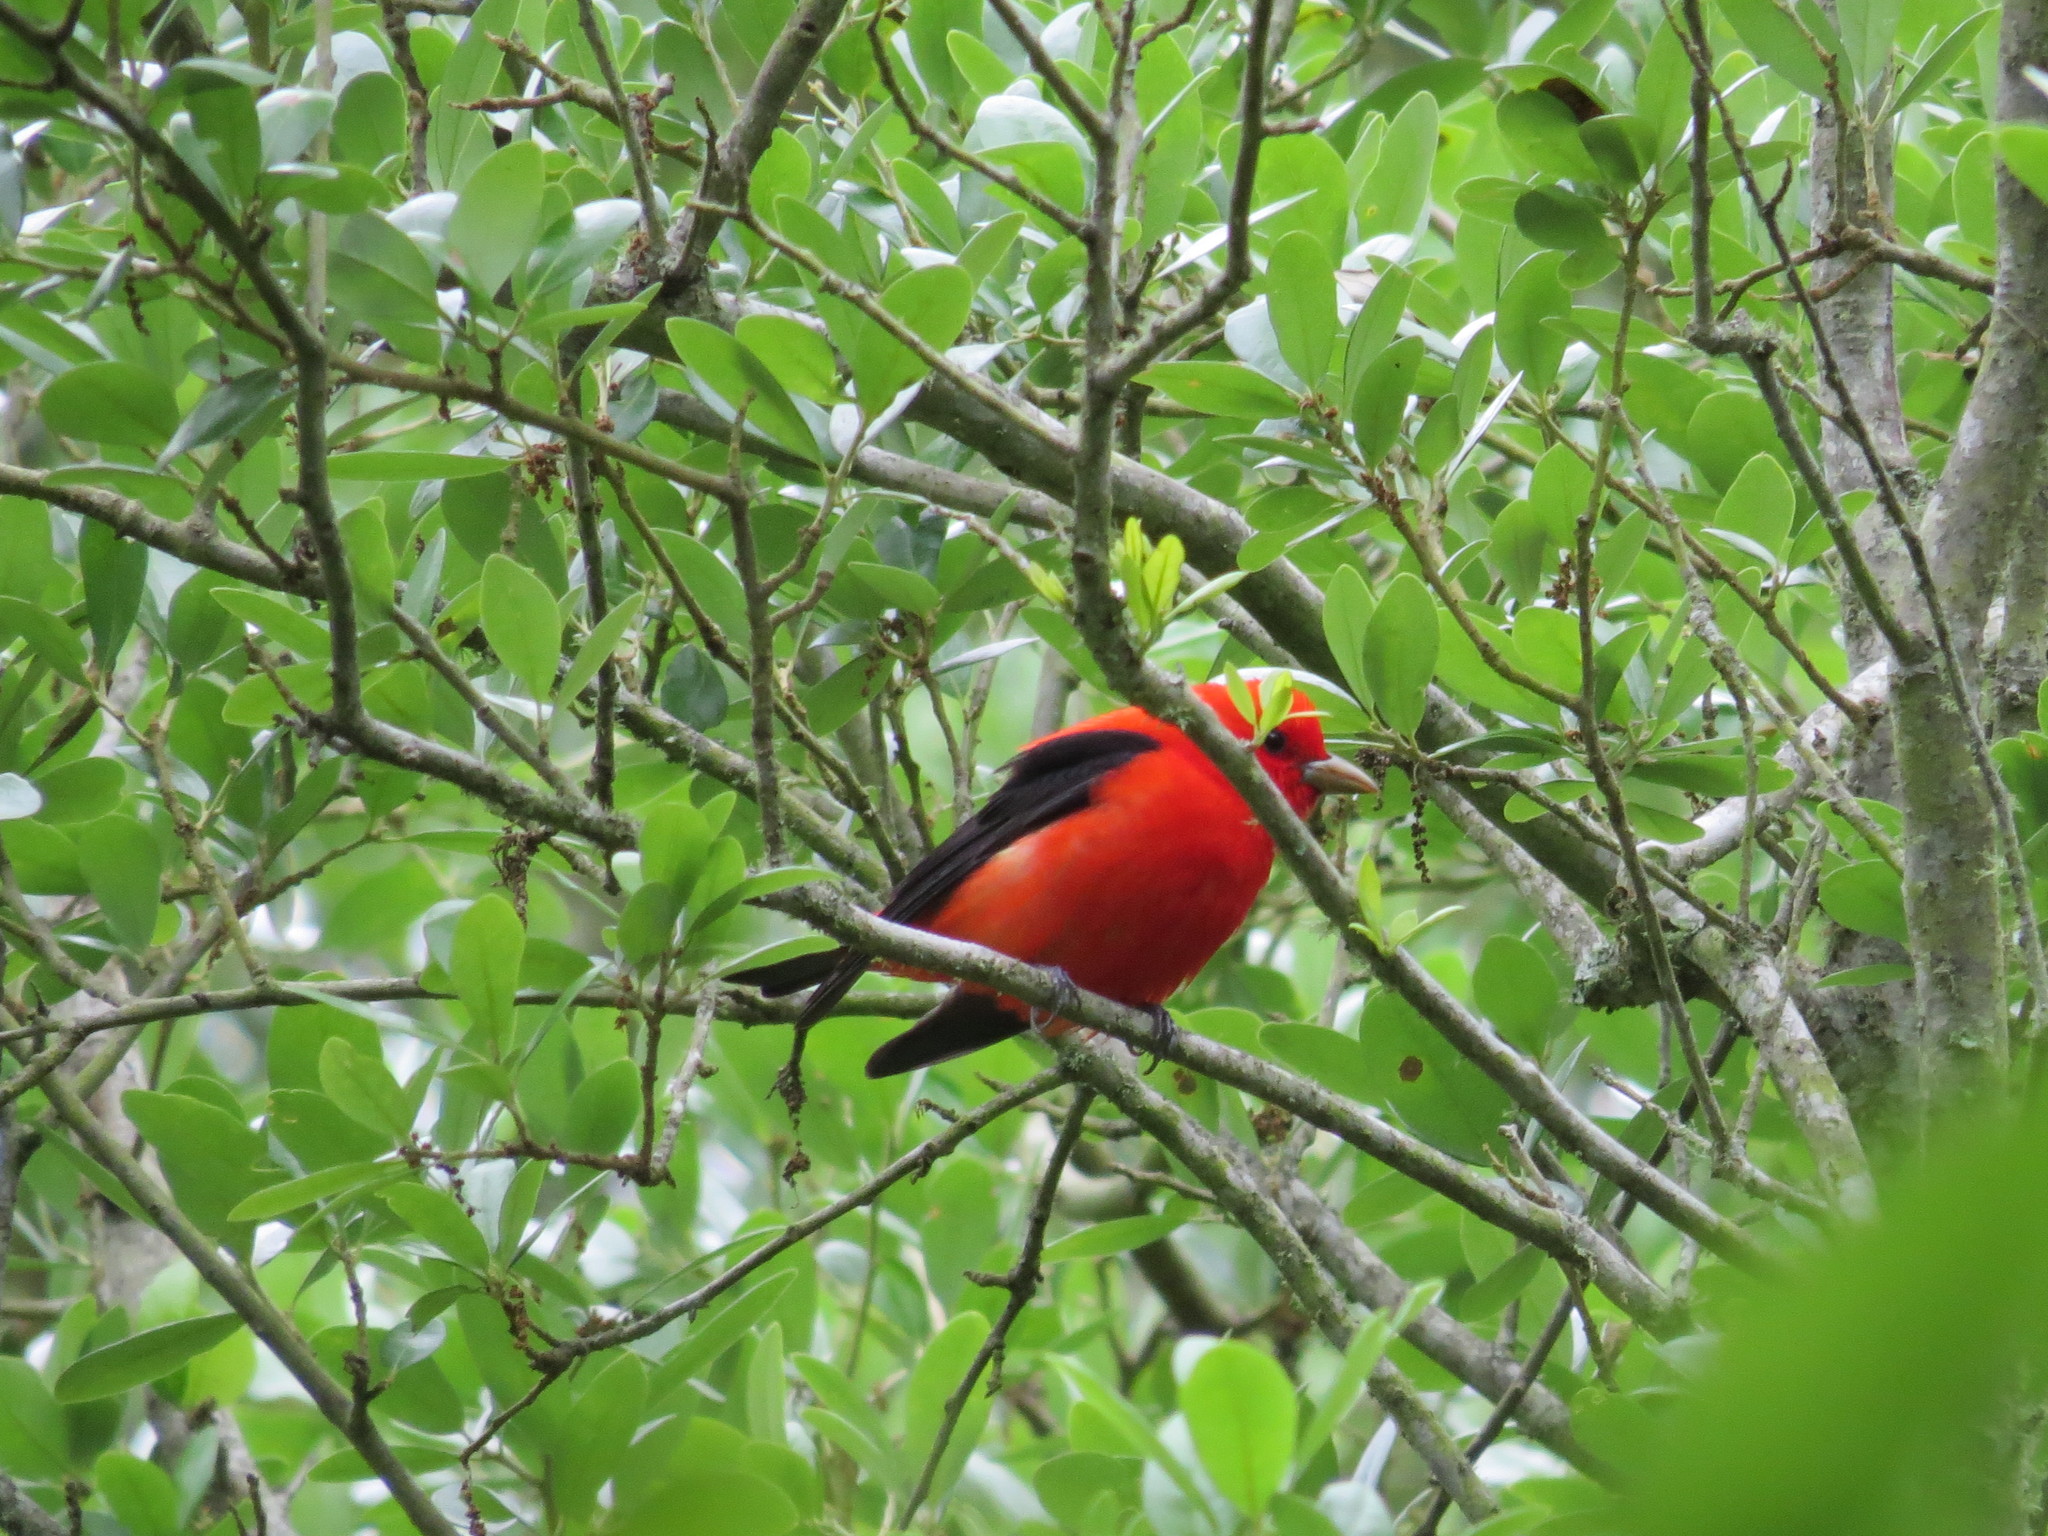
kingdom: Animalia
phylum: Chordata
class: Aves
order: Passeriformes
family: Cardinalidae
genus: Piranga
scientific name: Piranga olivacea
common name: Scarlet tanager
